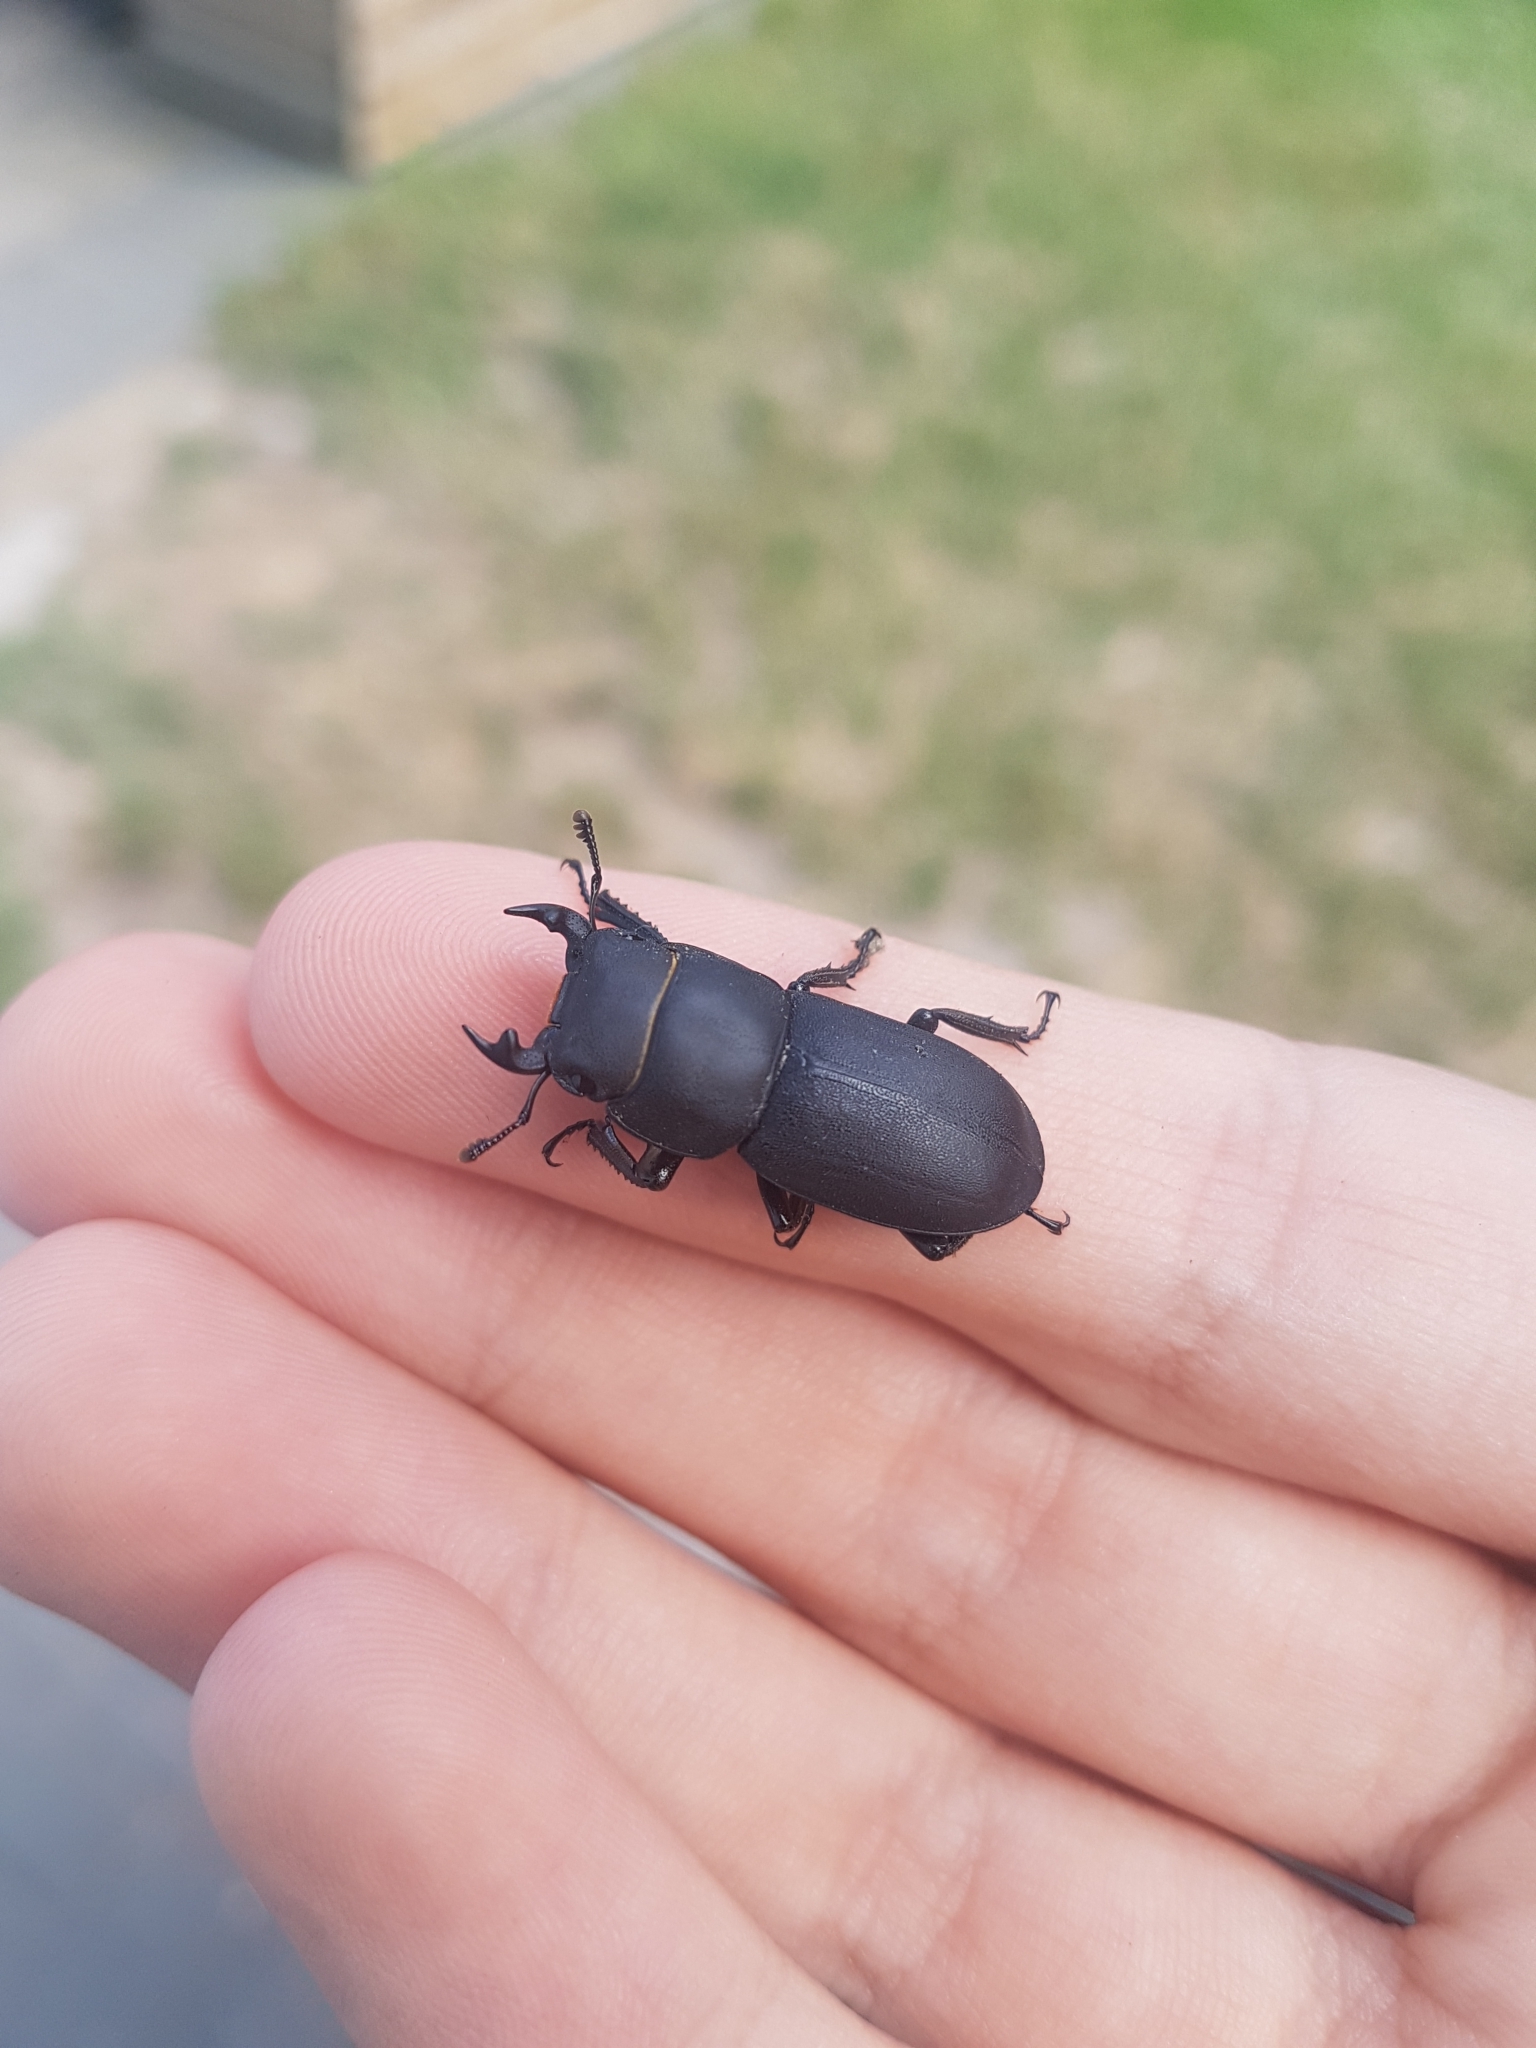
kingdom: Animalia
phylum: Arthropoda
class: Insecta
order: Coleoptera
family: Lucanidae
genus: Dorcus
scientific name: Dorcus parallelipipedus
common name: Lesser stag beetle
